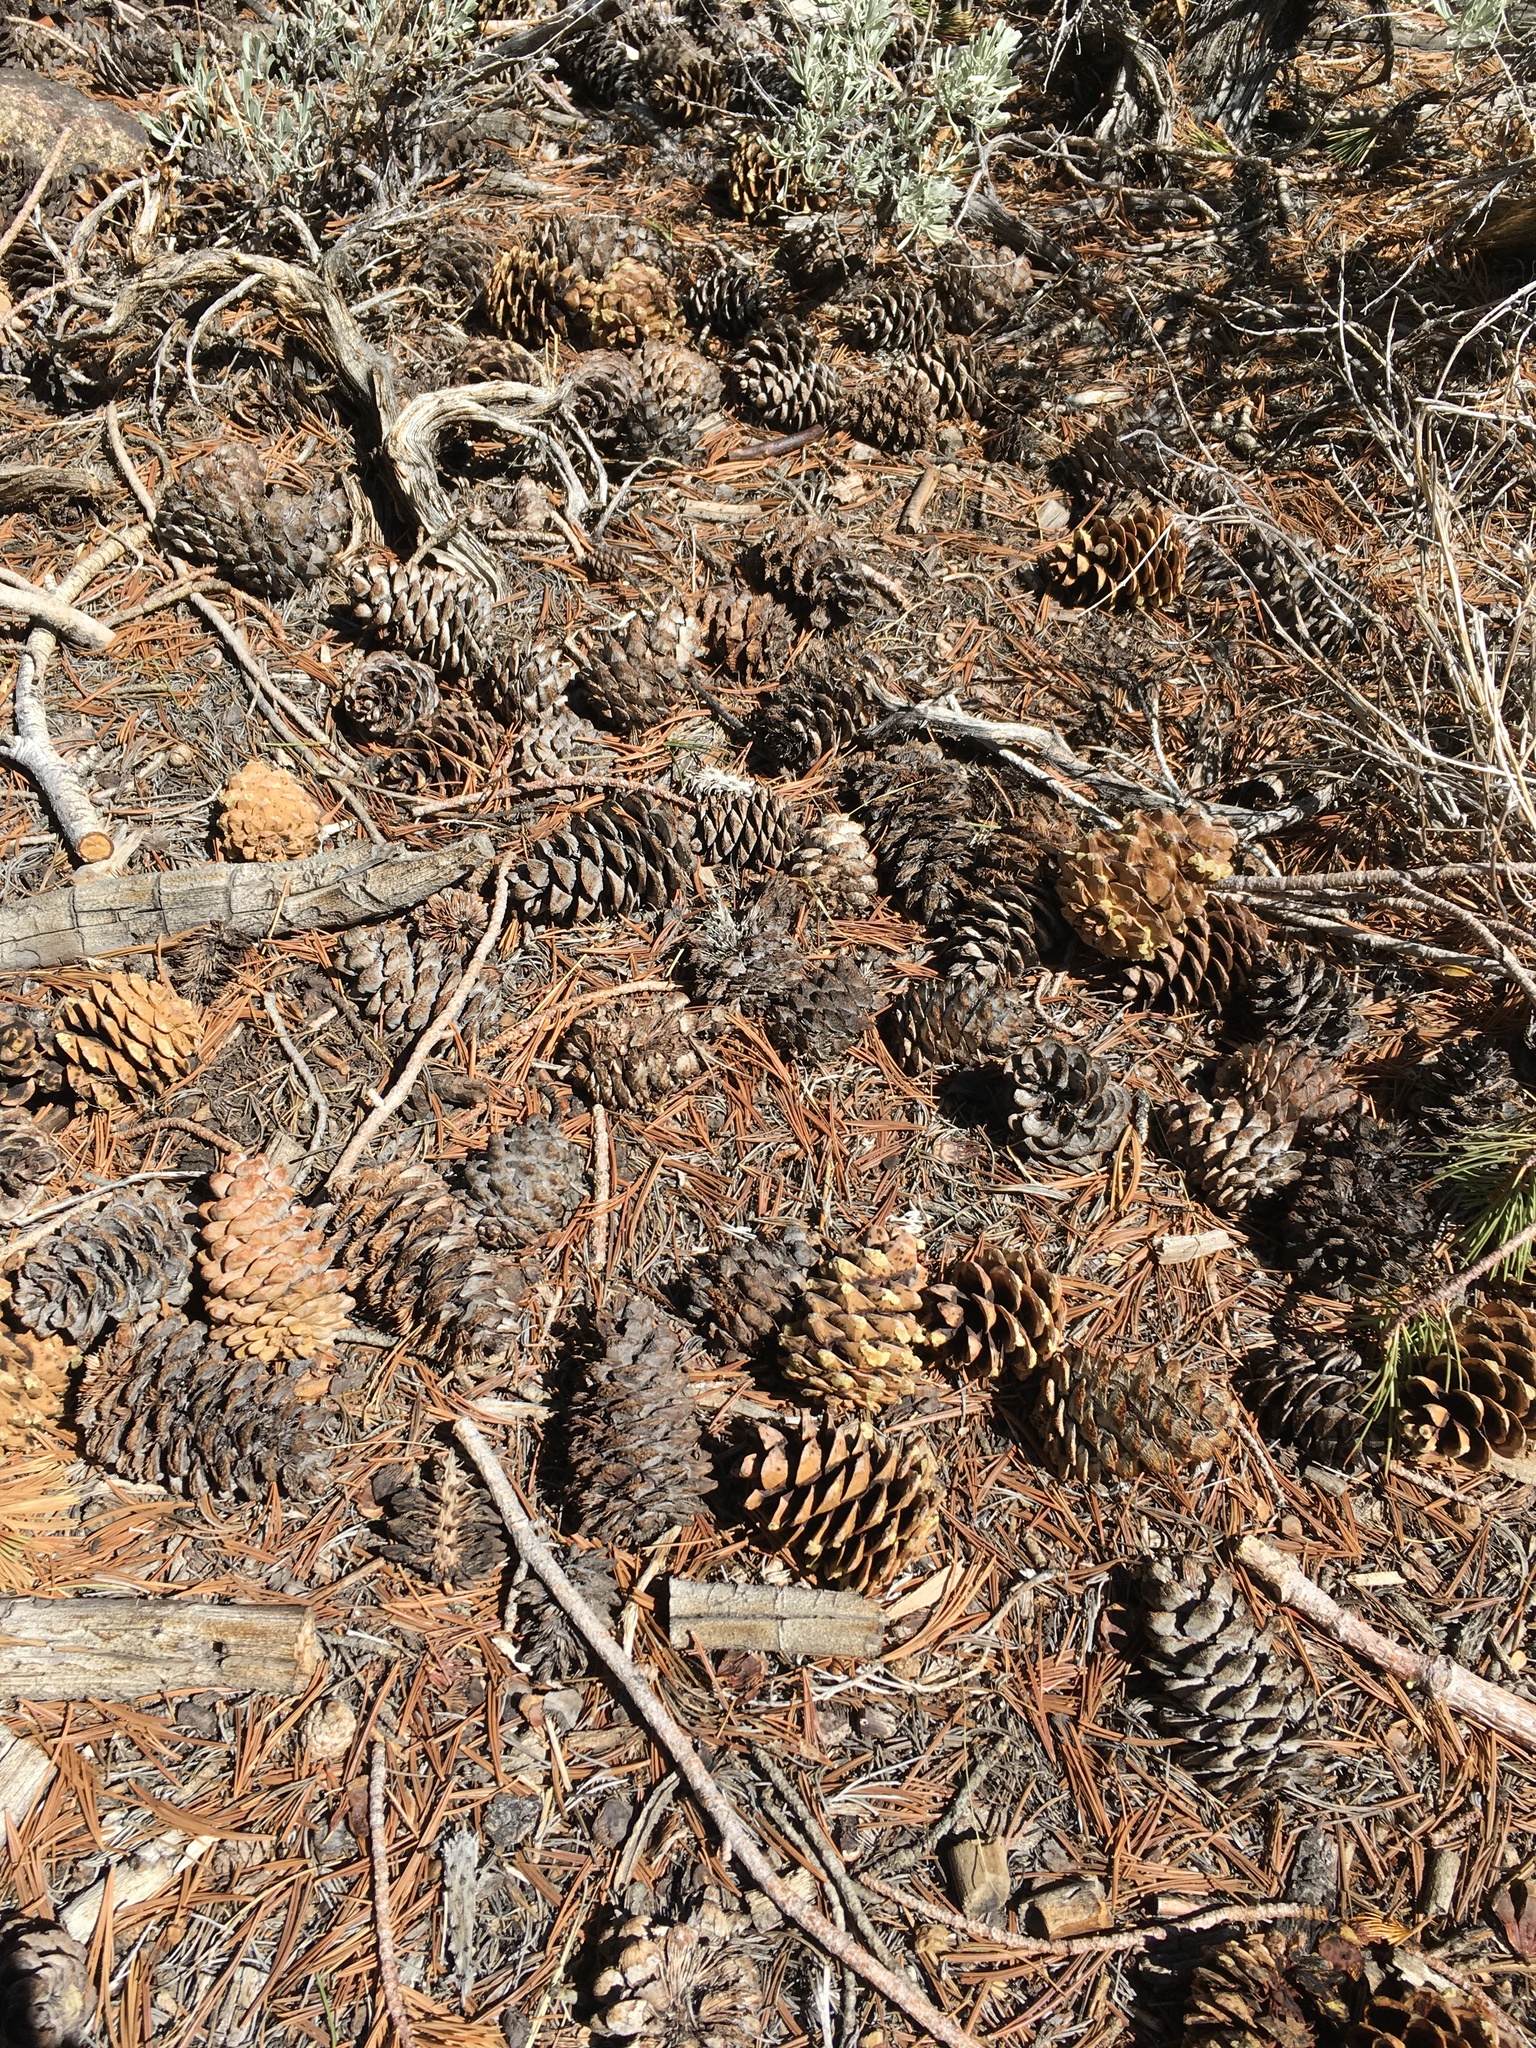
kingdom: Plantae
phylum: Tracheophyta
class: Pinopsida
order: Pinales
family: Pinaceae
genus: Pinus
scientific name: Pinus flexilis
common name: Limber pine
